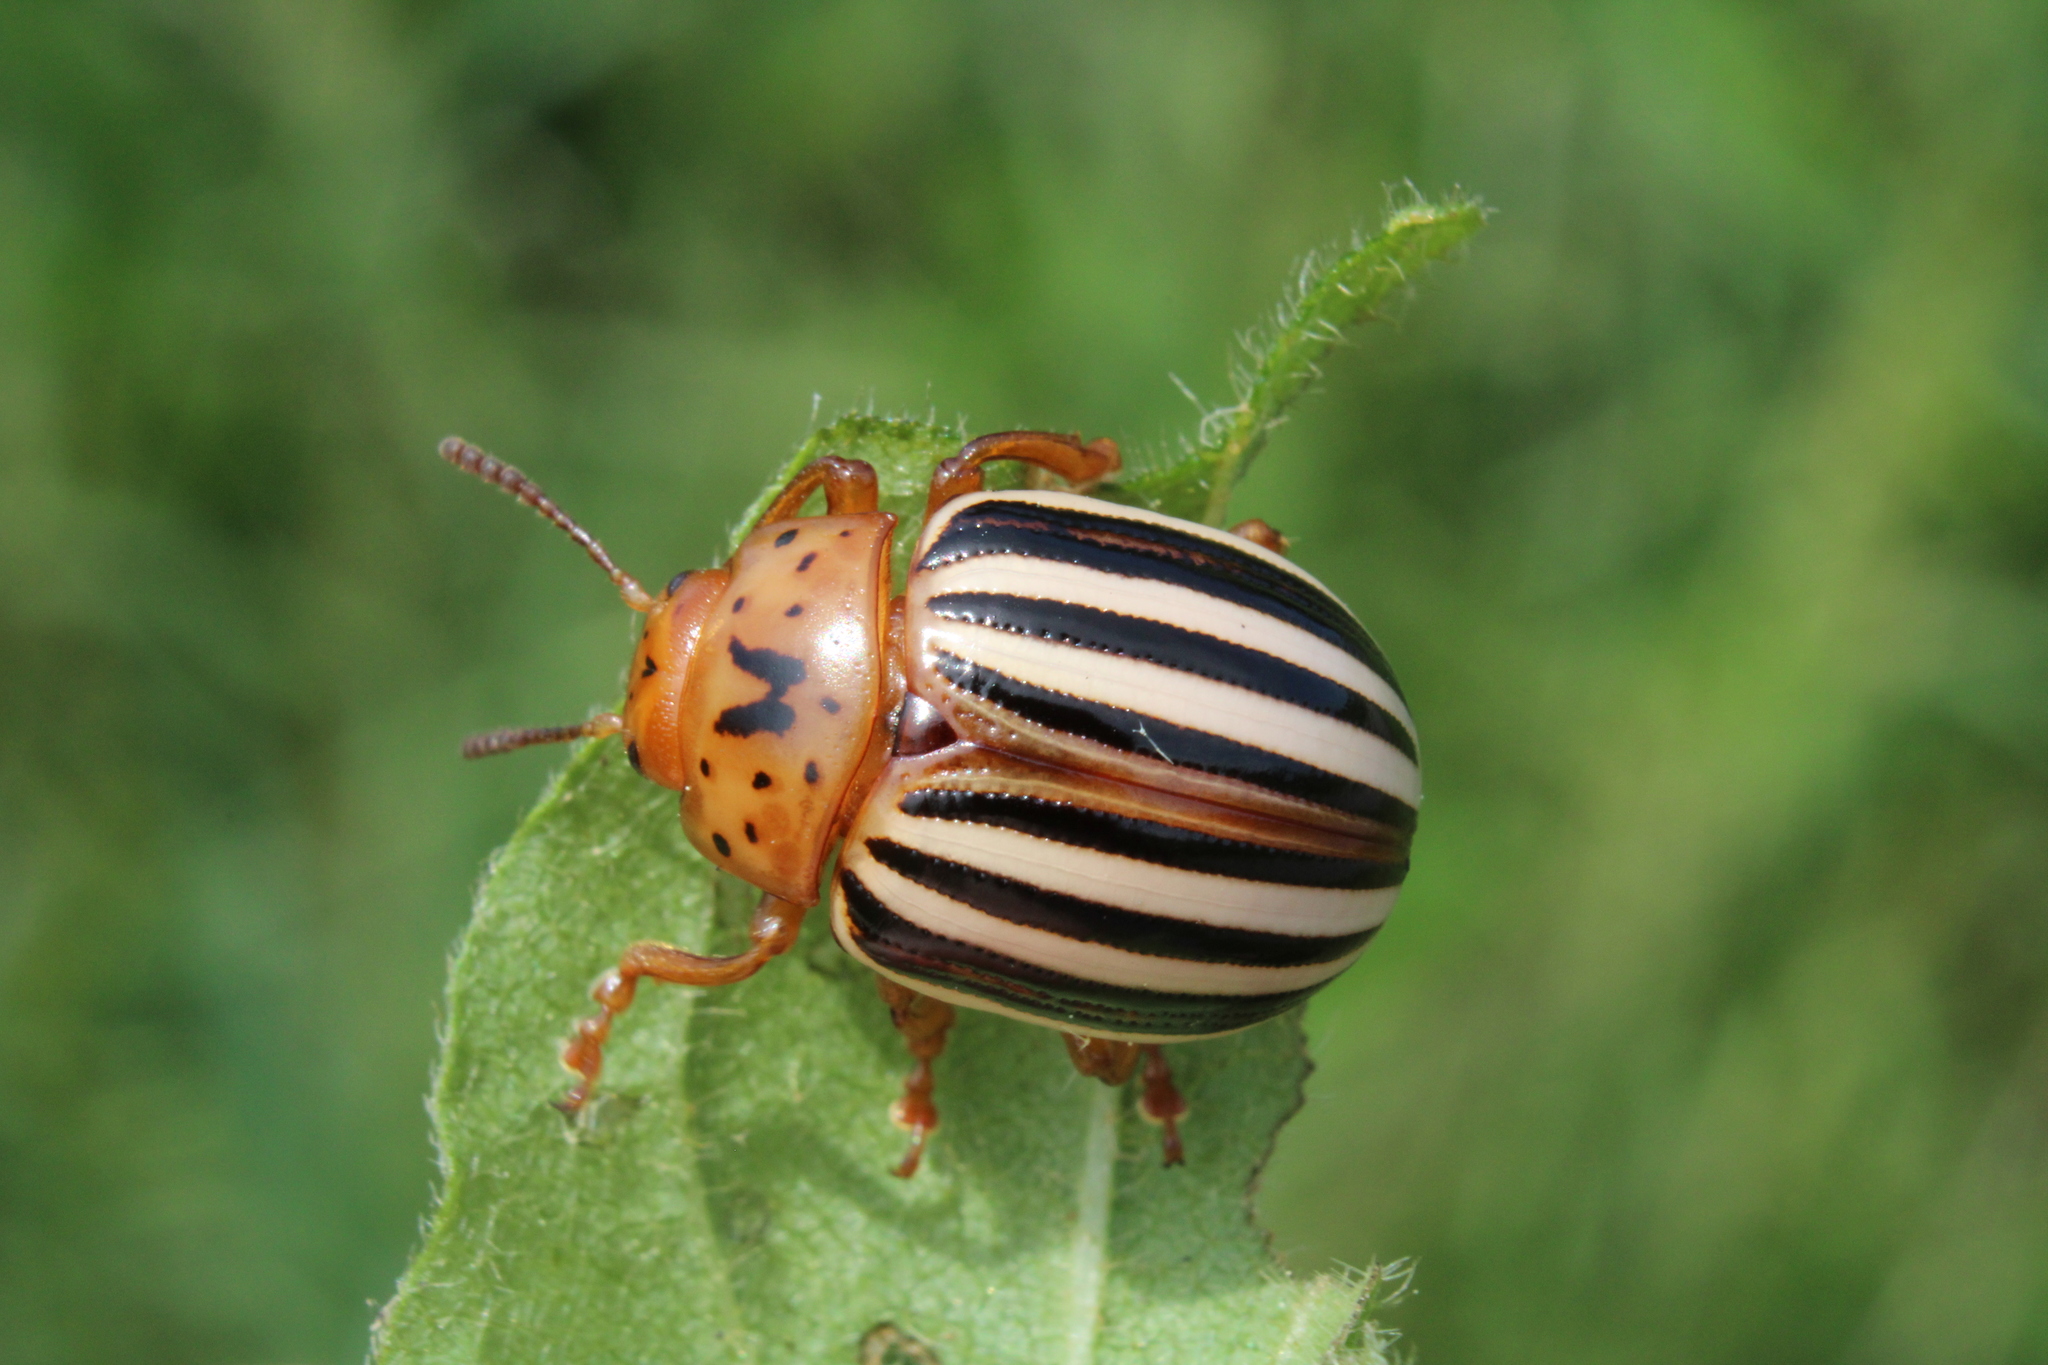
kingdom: Animalia
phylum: Arthropoda
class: Insecta
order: Coleoptera
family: Chrysomelidae
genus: Leptinotarsa
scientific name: Leptinotarsa juncta
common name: False potato beetle
